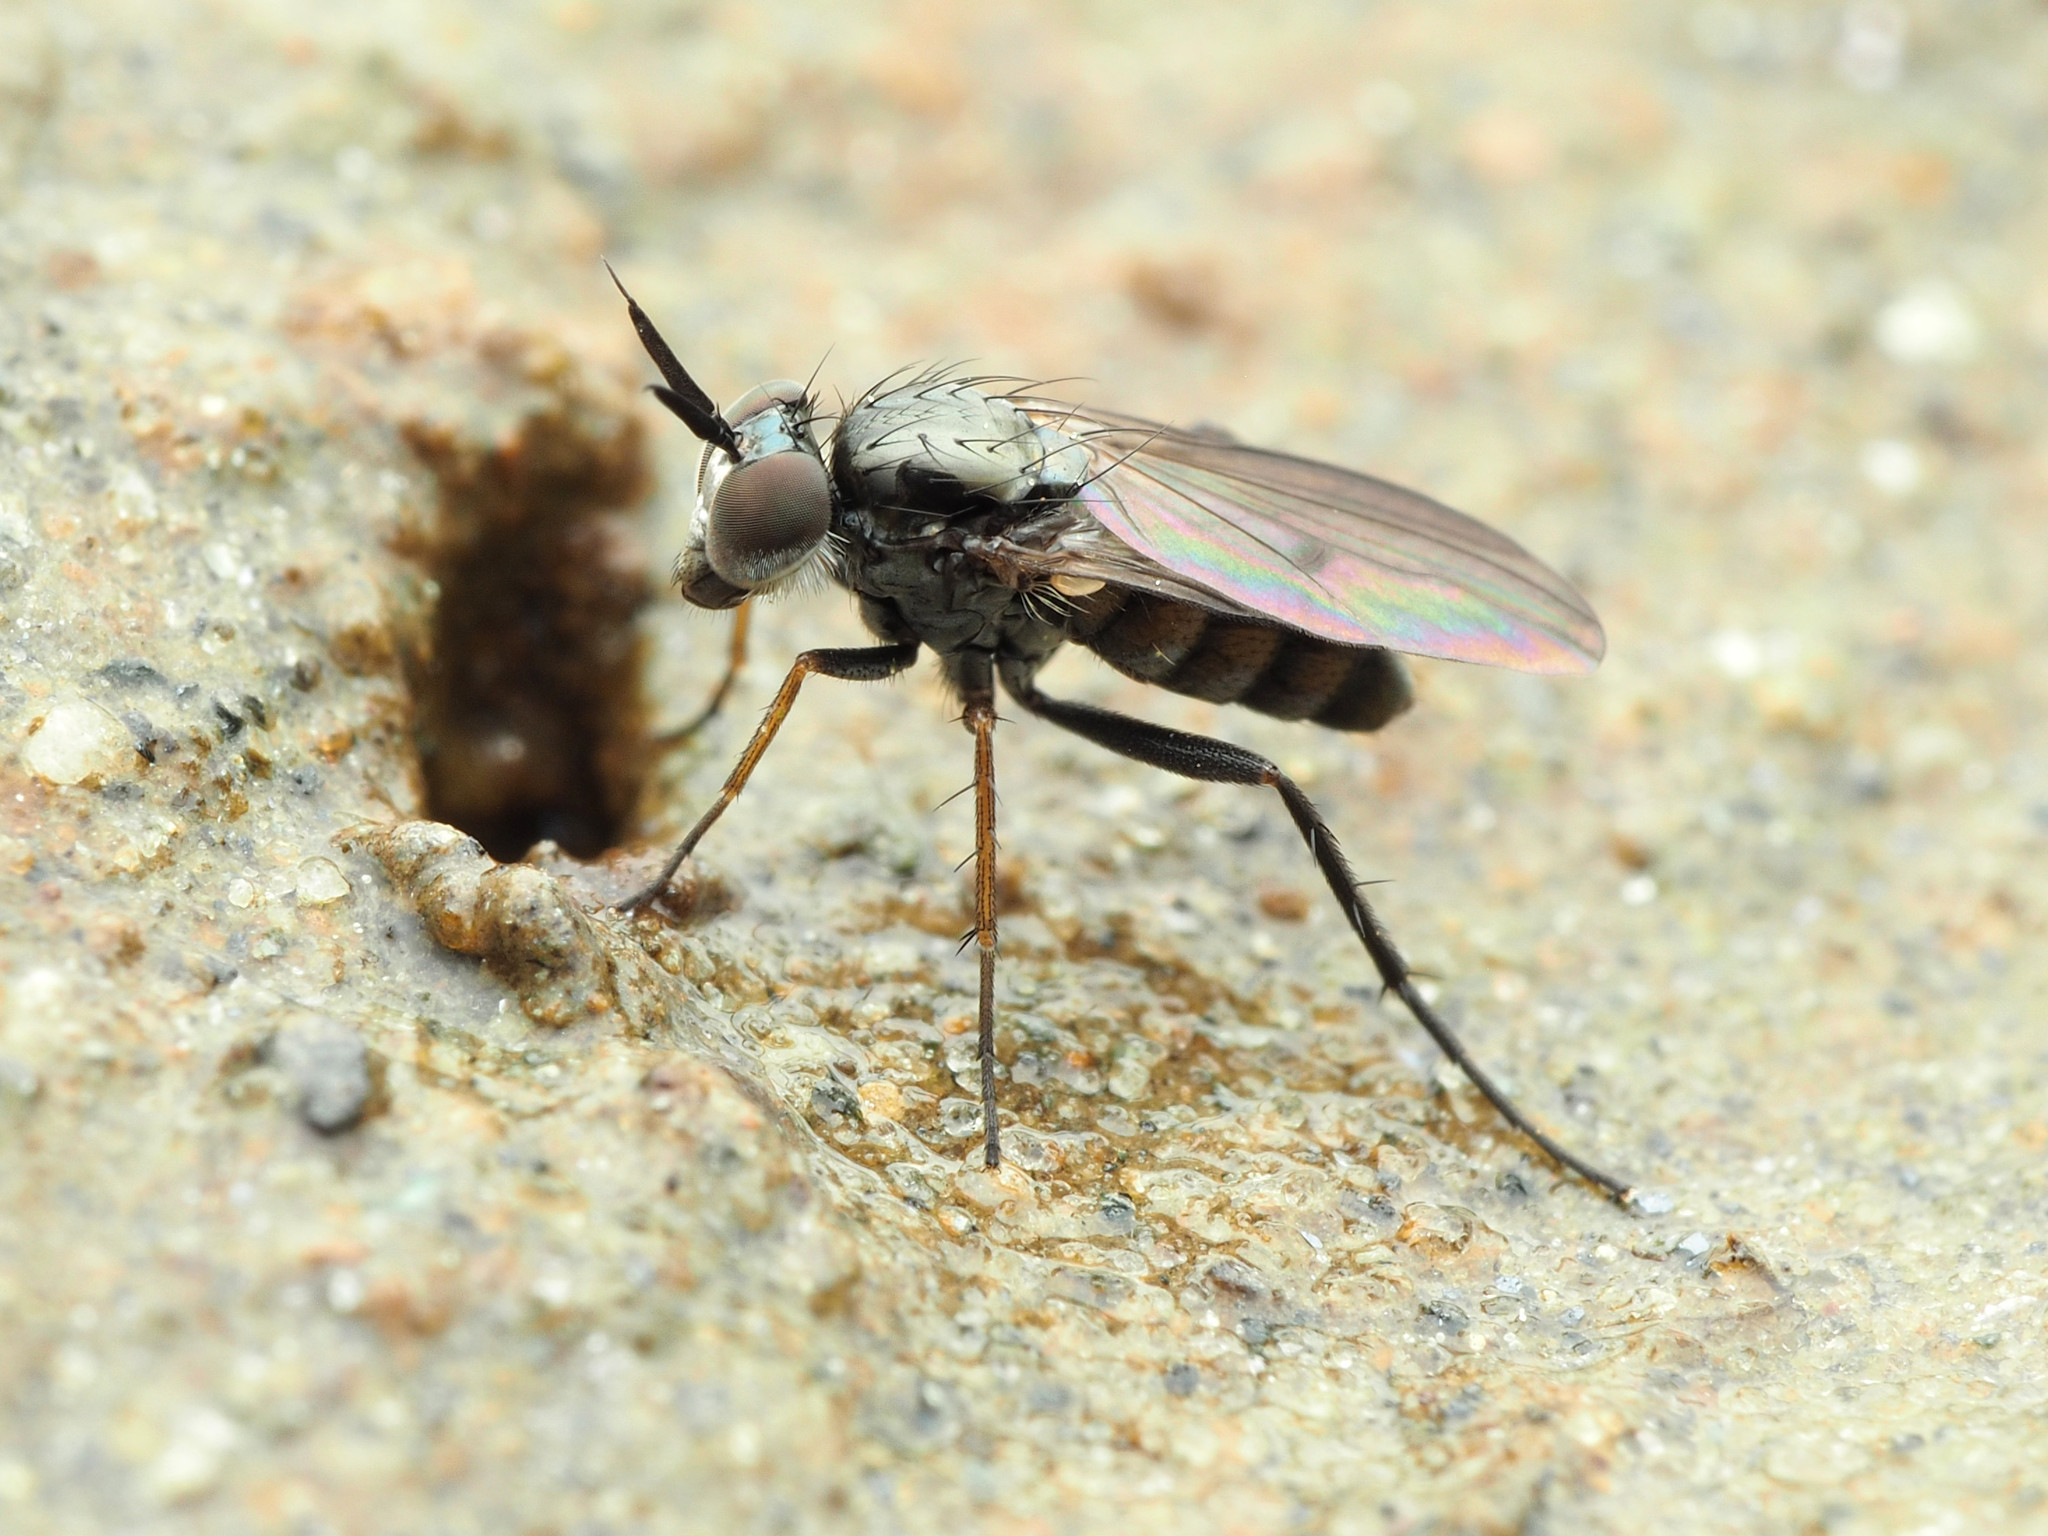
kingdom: Animalia
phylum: Arthropoda
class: Insecta
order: Diptera
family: Dolichopodidae
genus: Rhaphium
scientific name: Rhaphium lugubre
